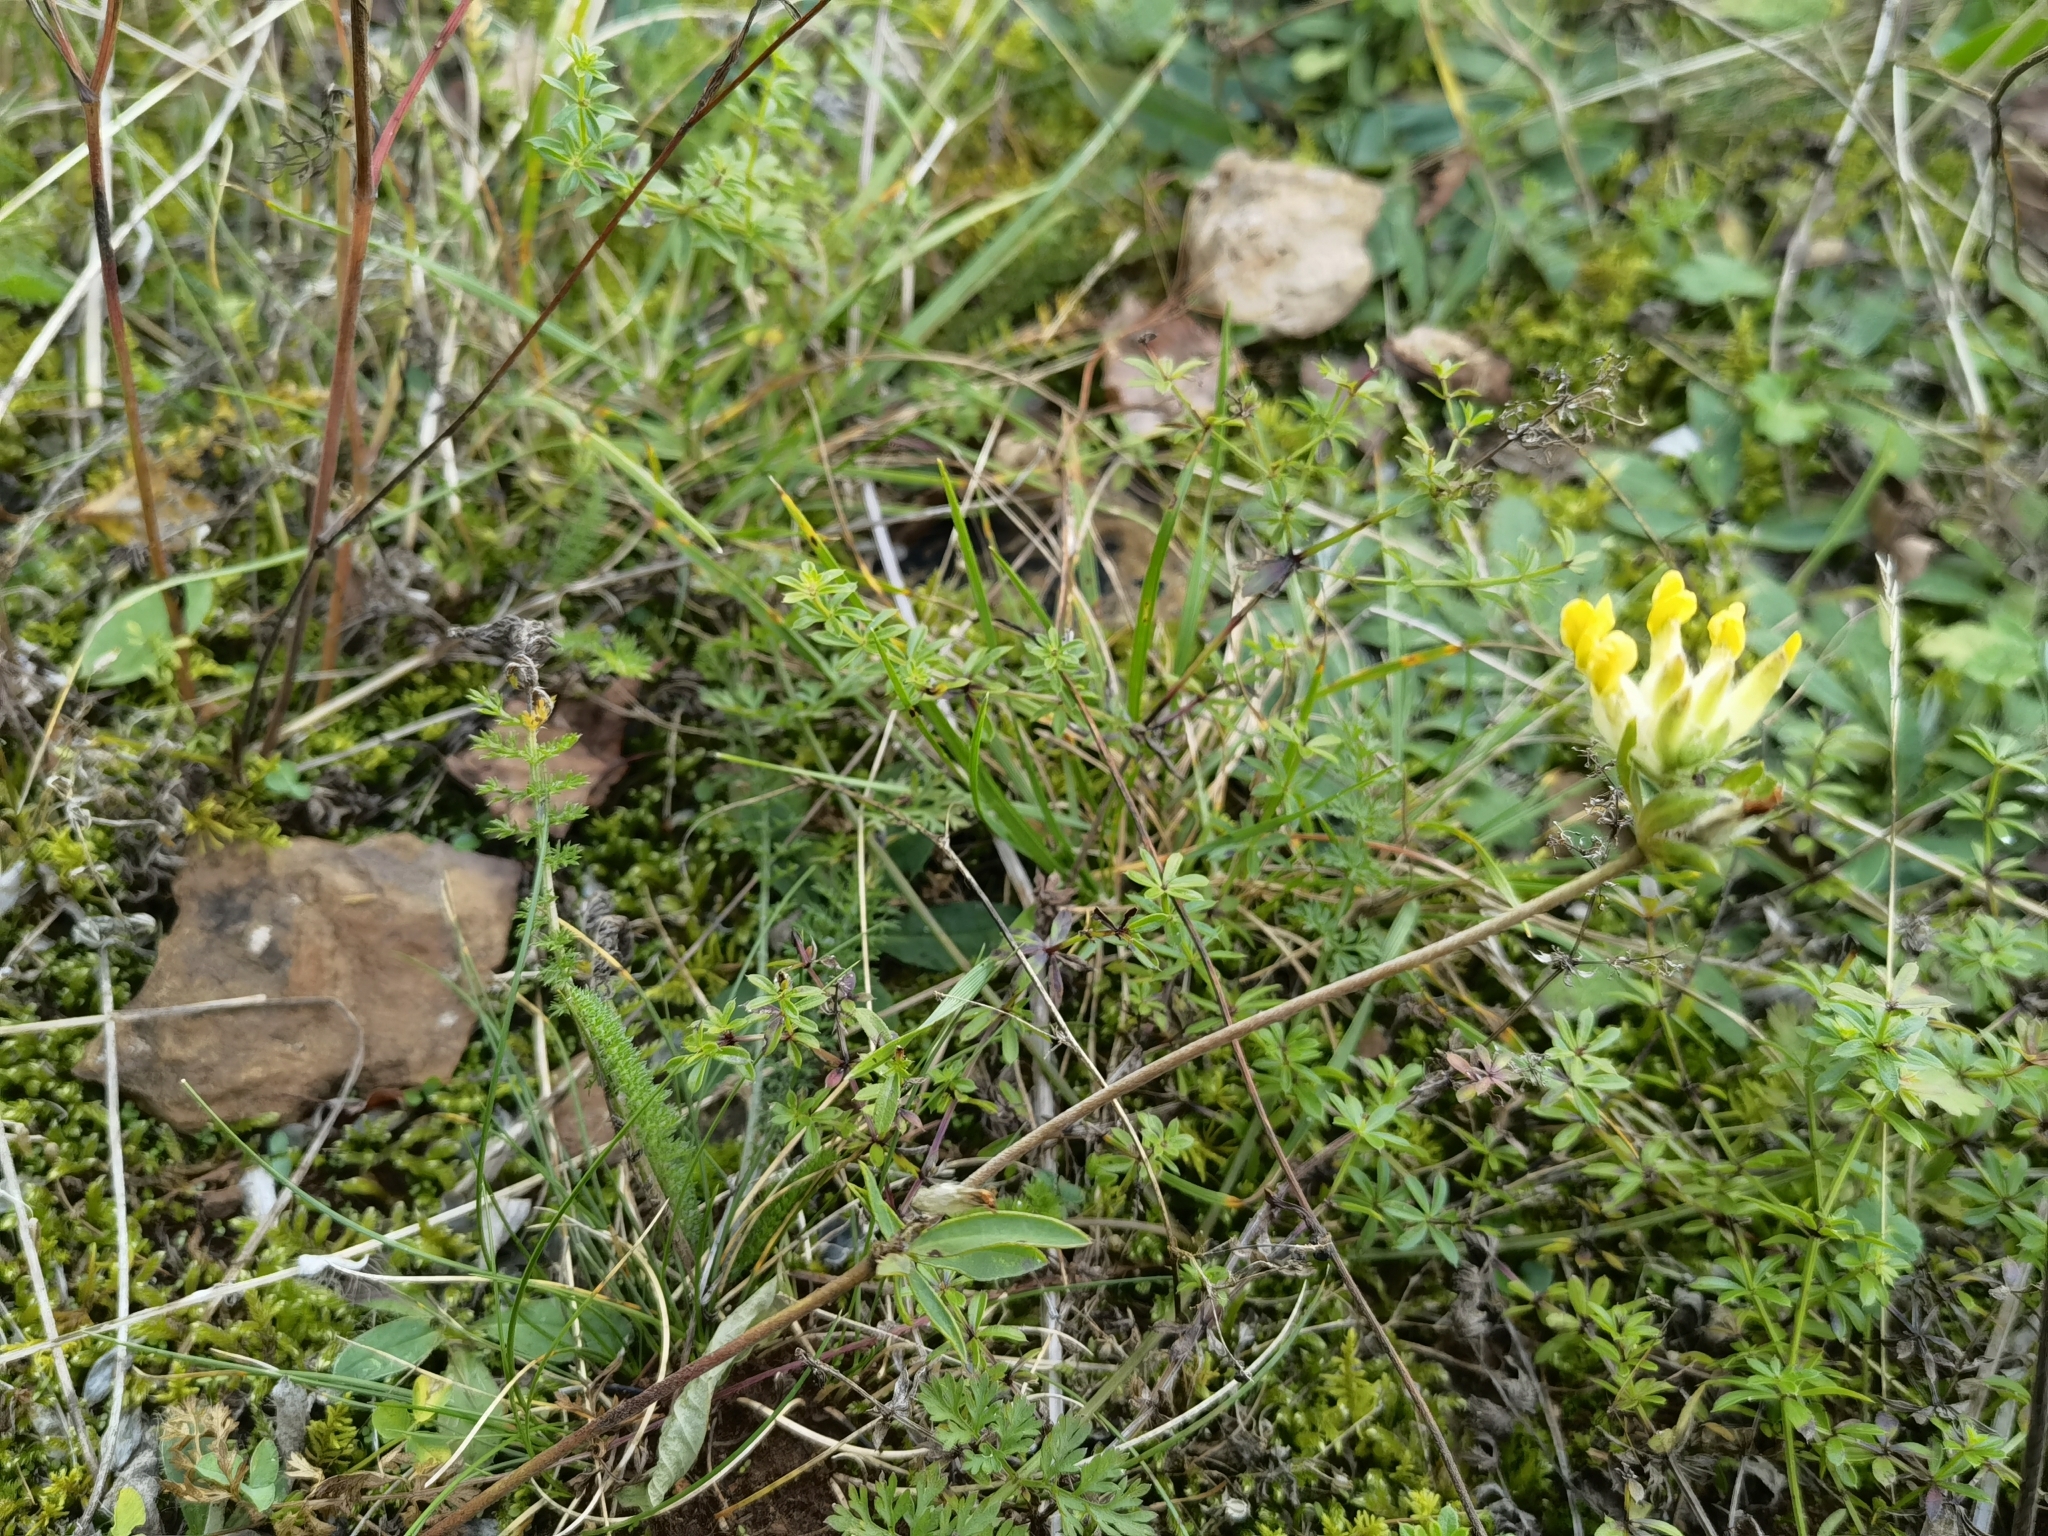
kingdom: Plantae
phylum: Tracheophyta
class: Magnoliopsida
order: Fabales
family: Fabaceae
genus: Anthyllis
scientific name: Anthyllis vulneraria
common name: Kidney vetch
